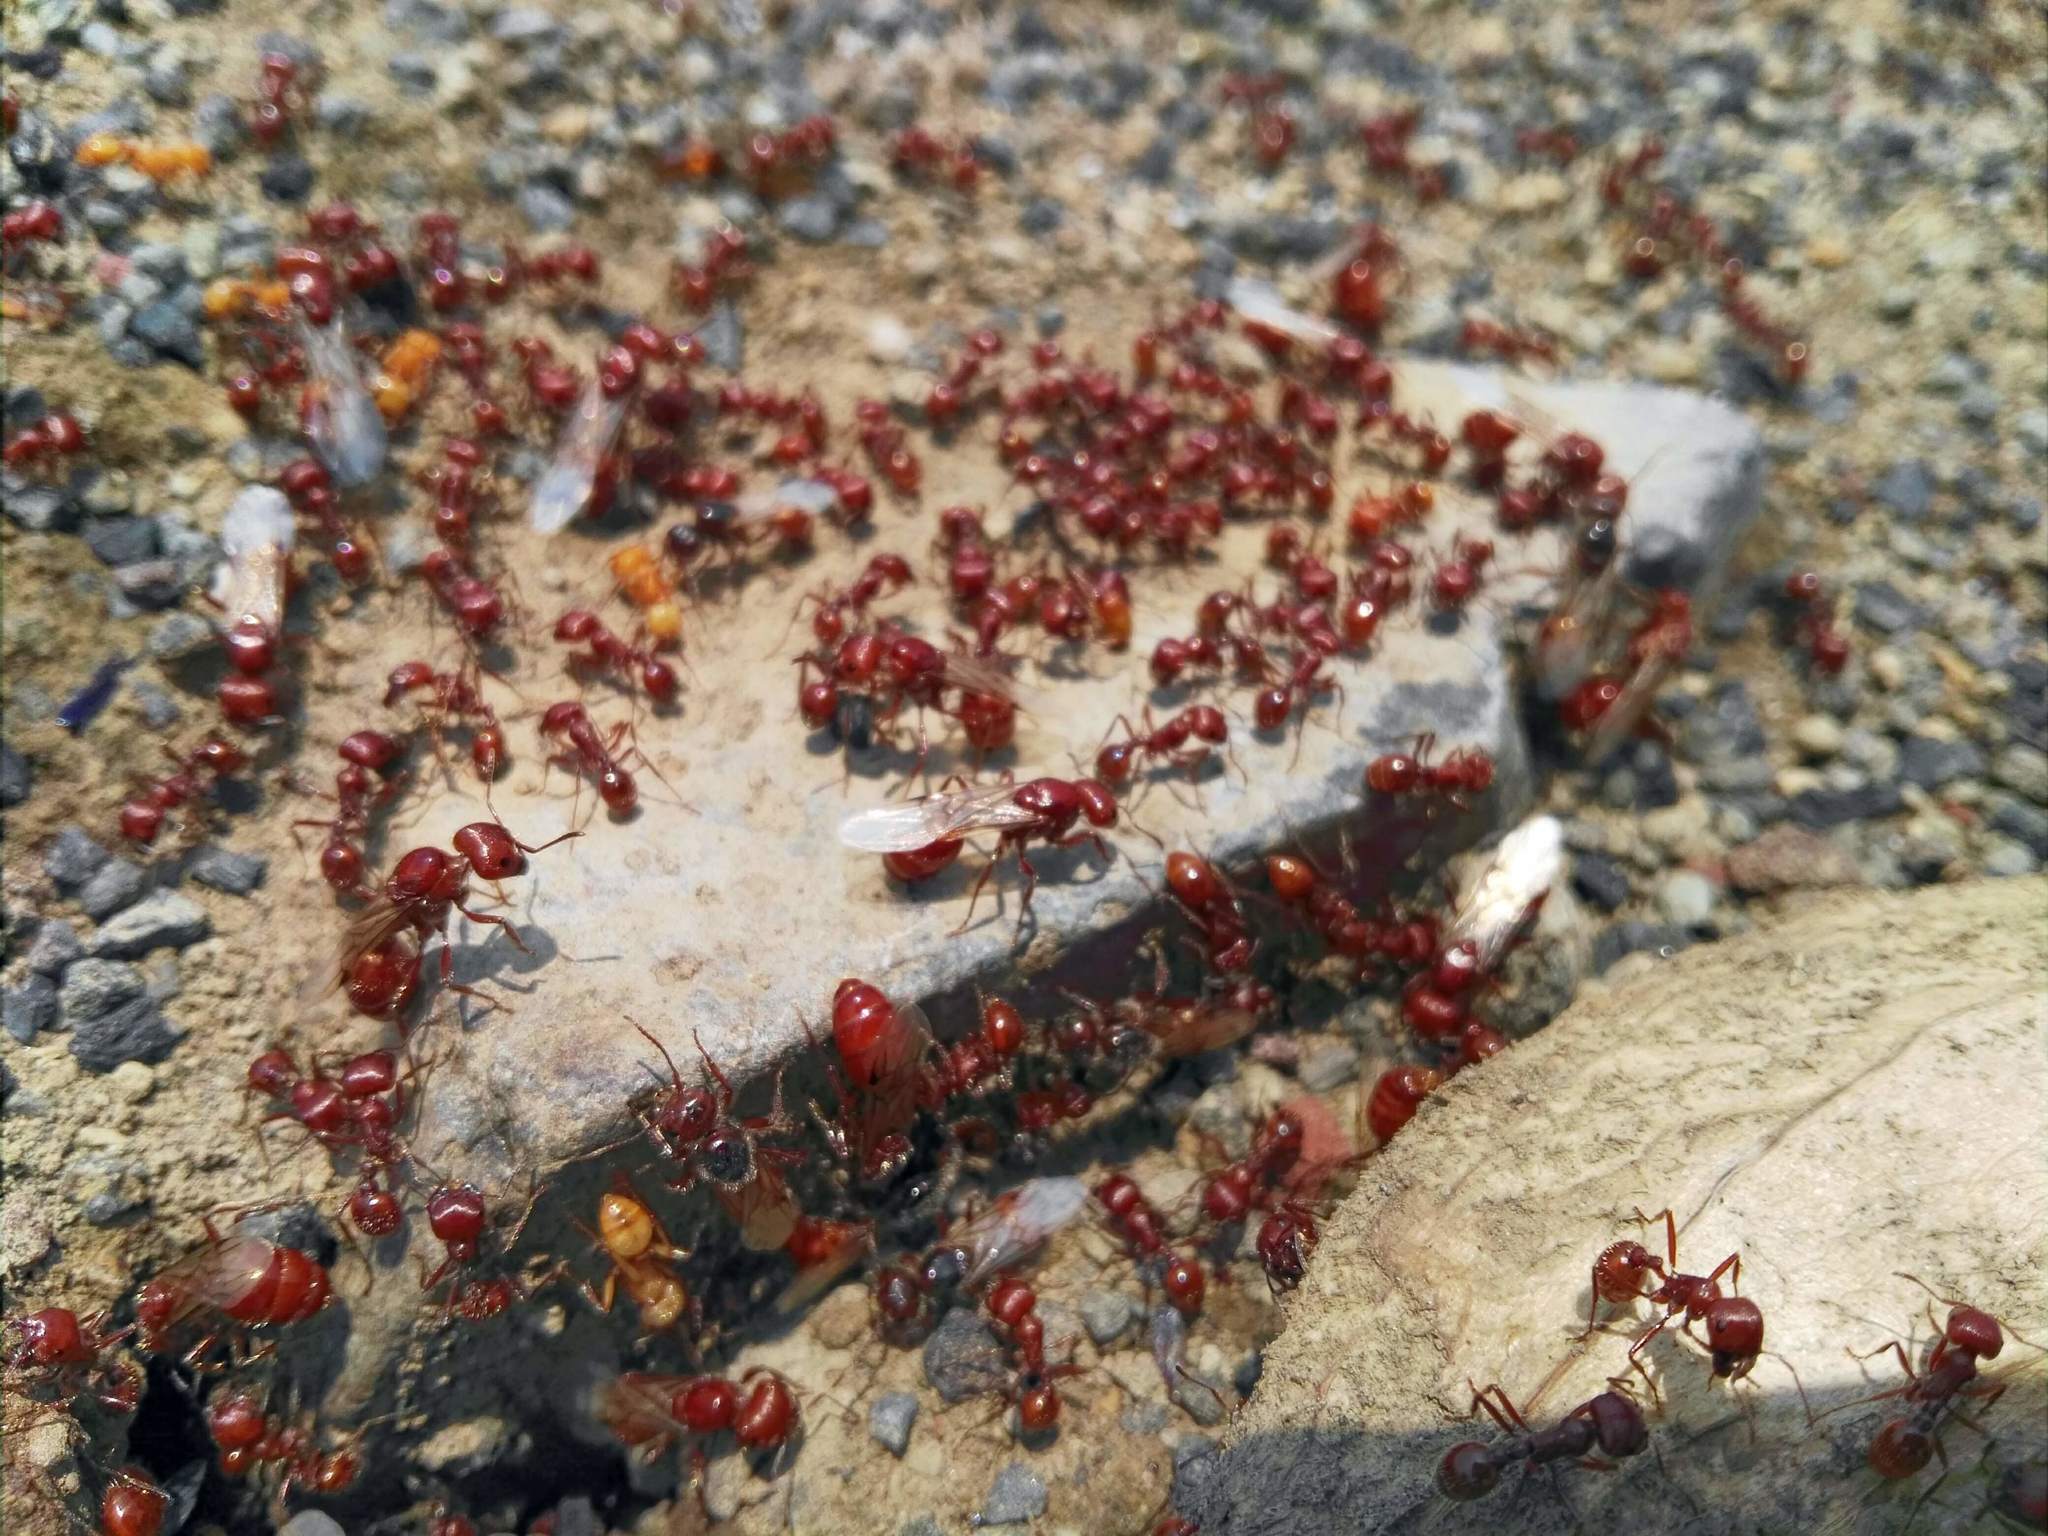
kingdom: Animalia
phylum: Arthropoda
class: Insecta
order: Hymenoptera
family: Formicidae
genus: Pogonomyrmex
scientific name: Pogonomyrmex barbatus
